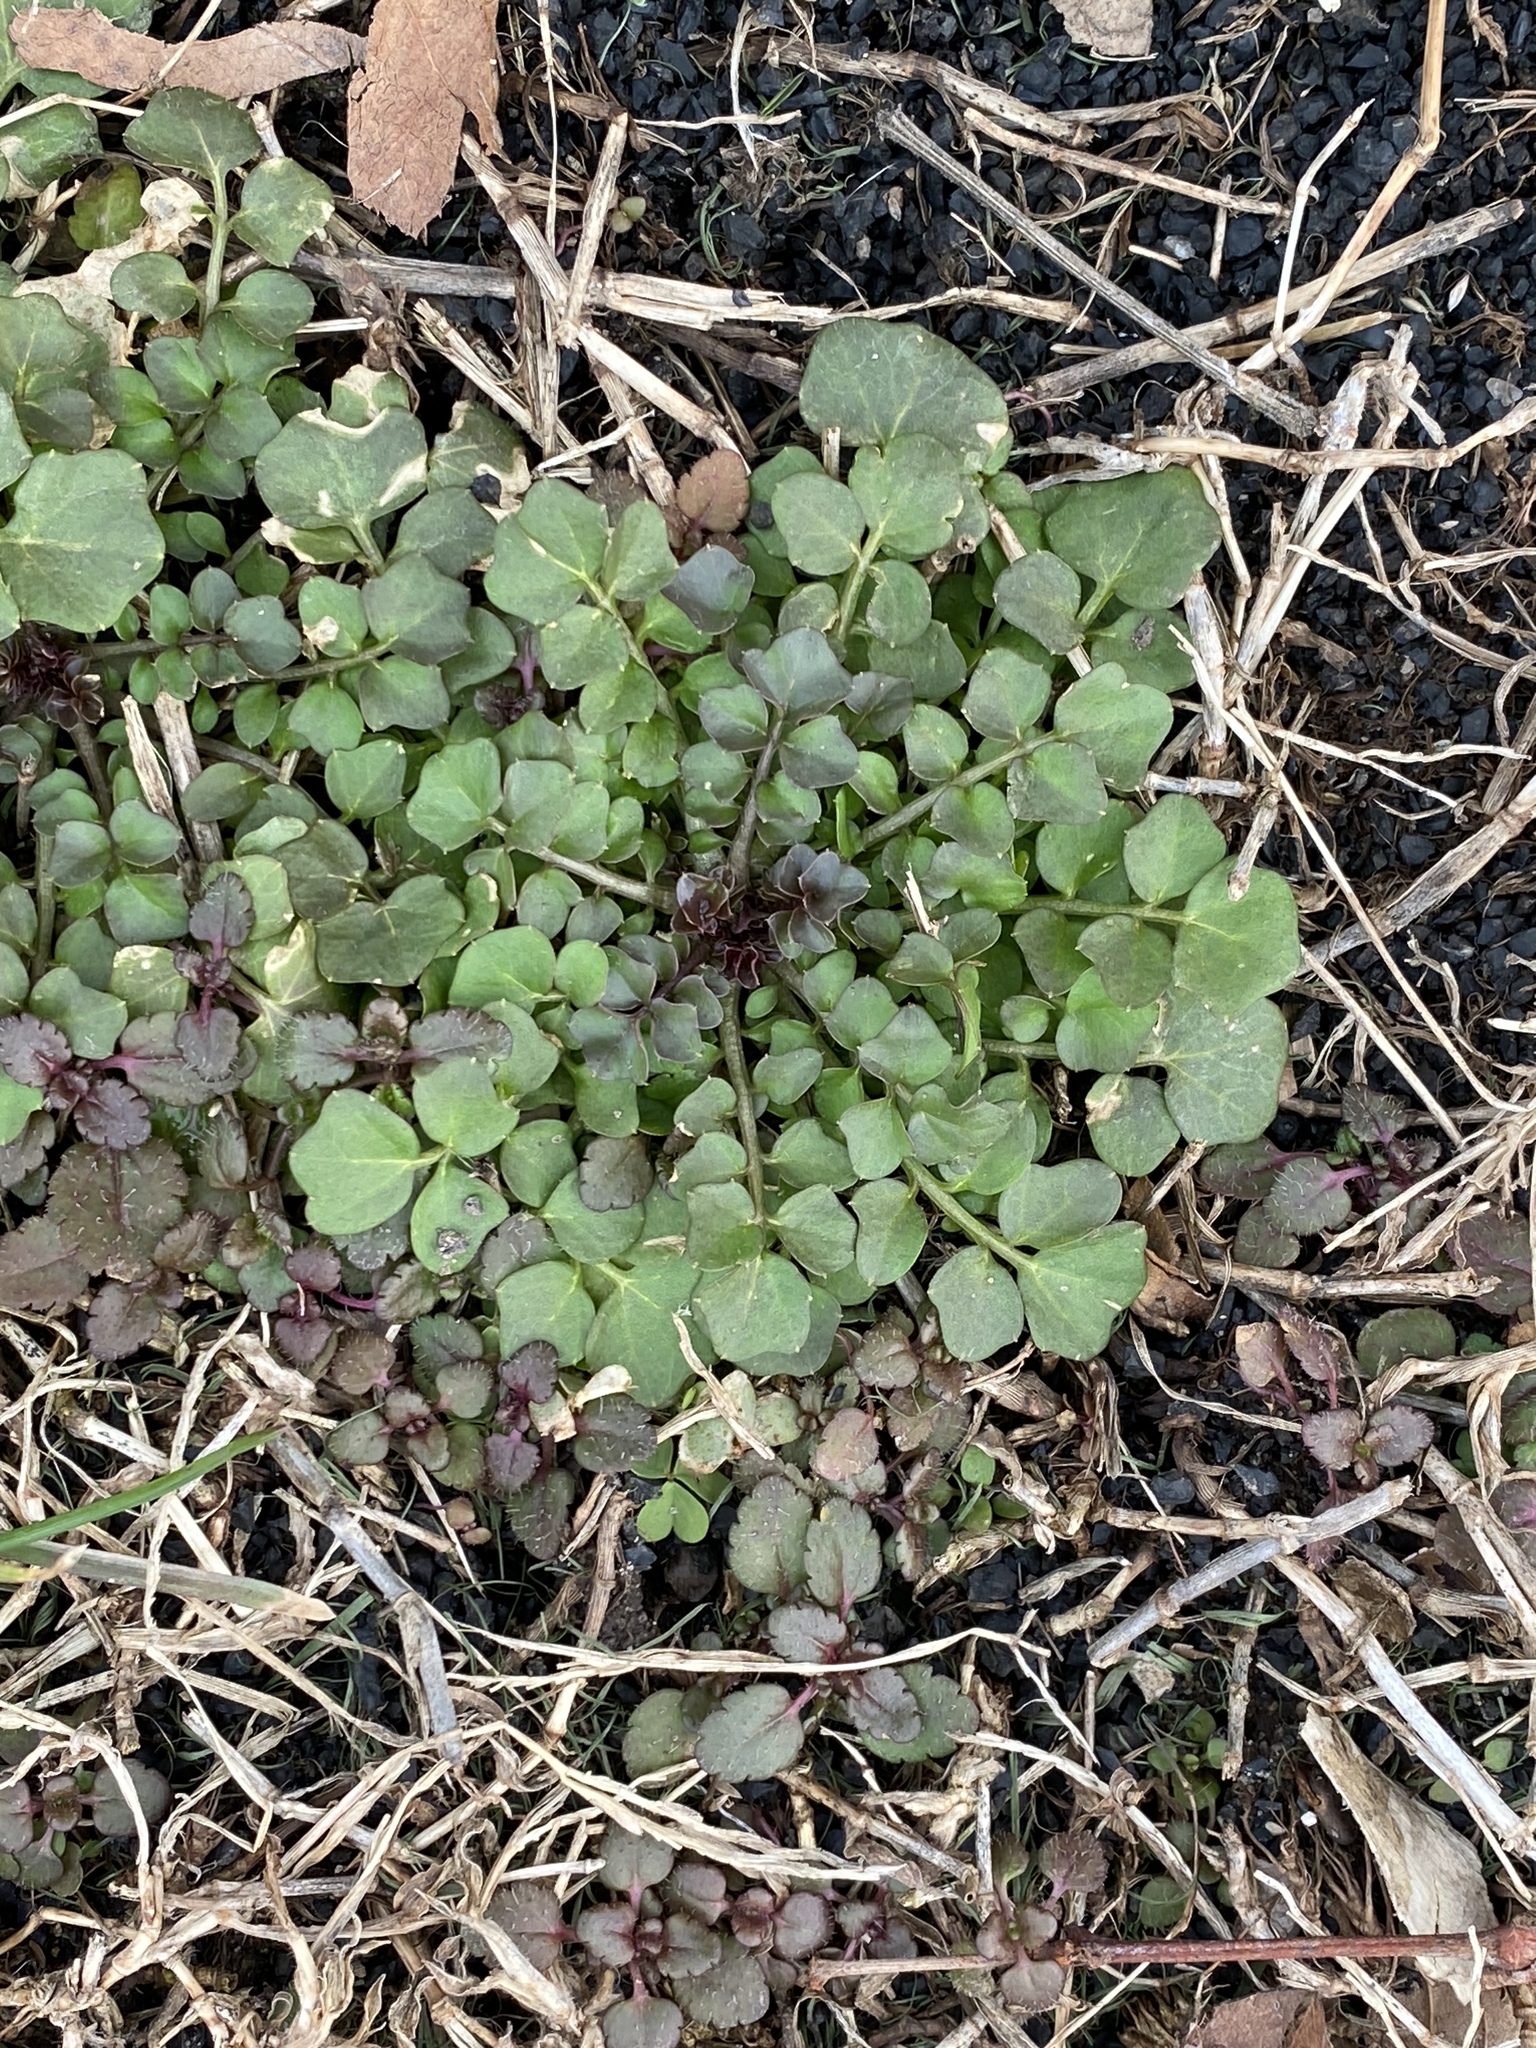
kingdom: Plantae
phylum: Tracheophyta
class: Magnoliopsida
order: Brassicales
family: Brassicaceae
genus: Cardamine
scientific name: Cardamine hirsuta
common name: Hairy bittercress
